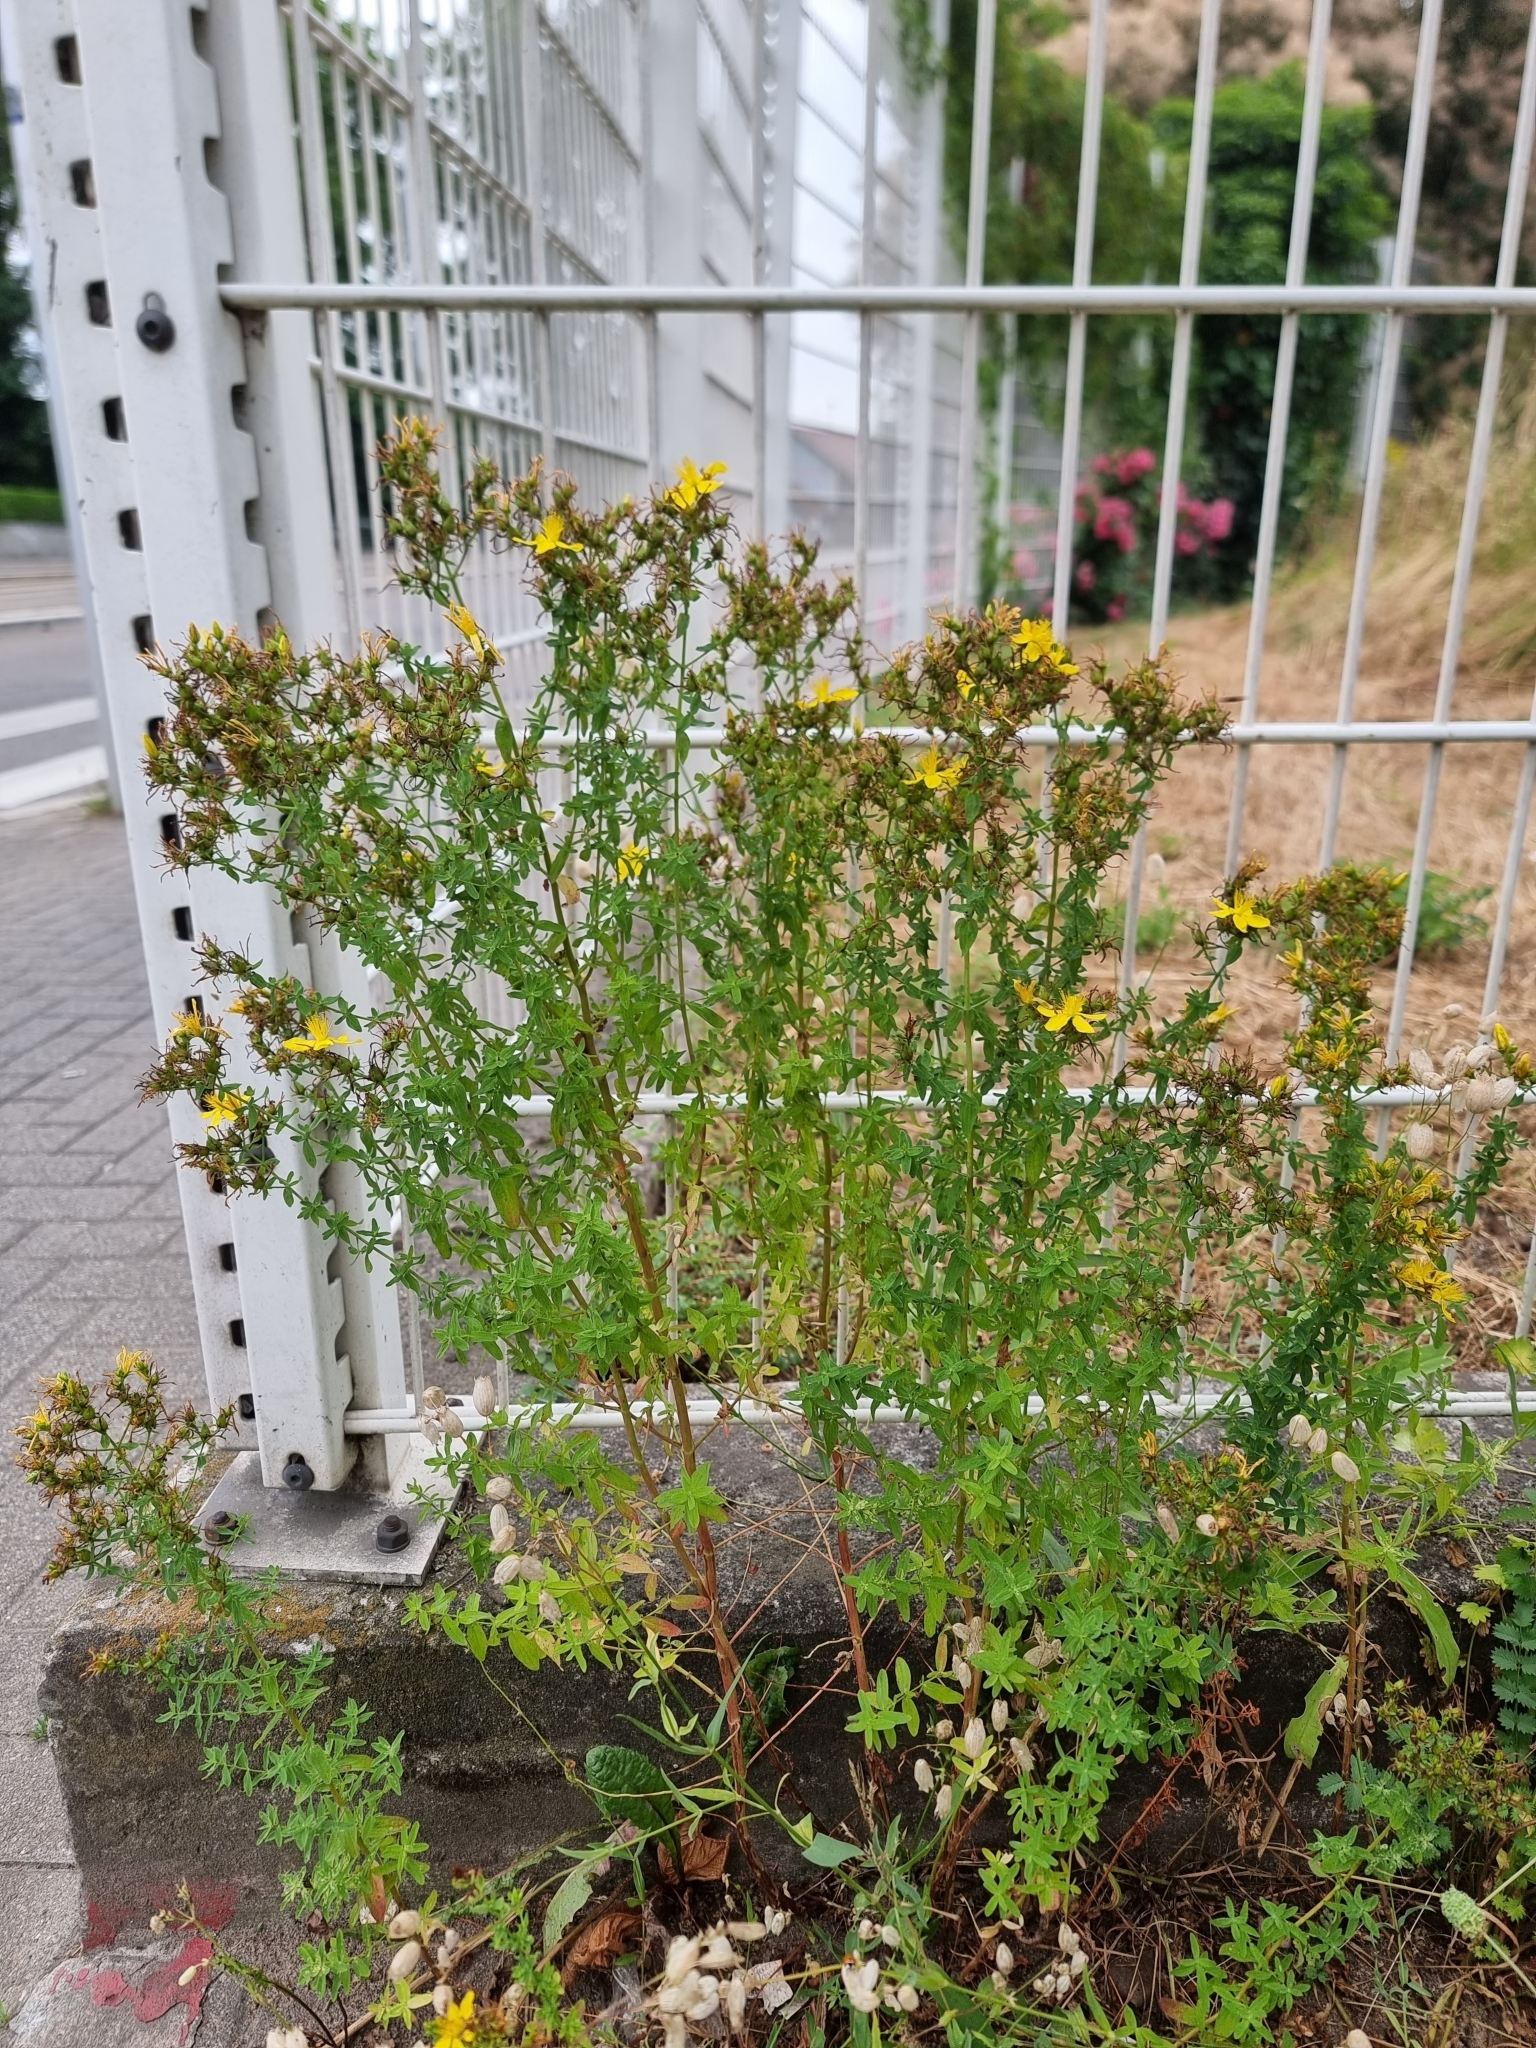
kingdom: Plantae
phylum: Tracheophyta
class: Magnoliopsida
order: Malpighiales
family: Hypericaceae
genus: Hypericum
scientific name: Hypericum perforatum
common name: Common st. johnswort
